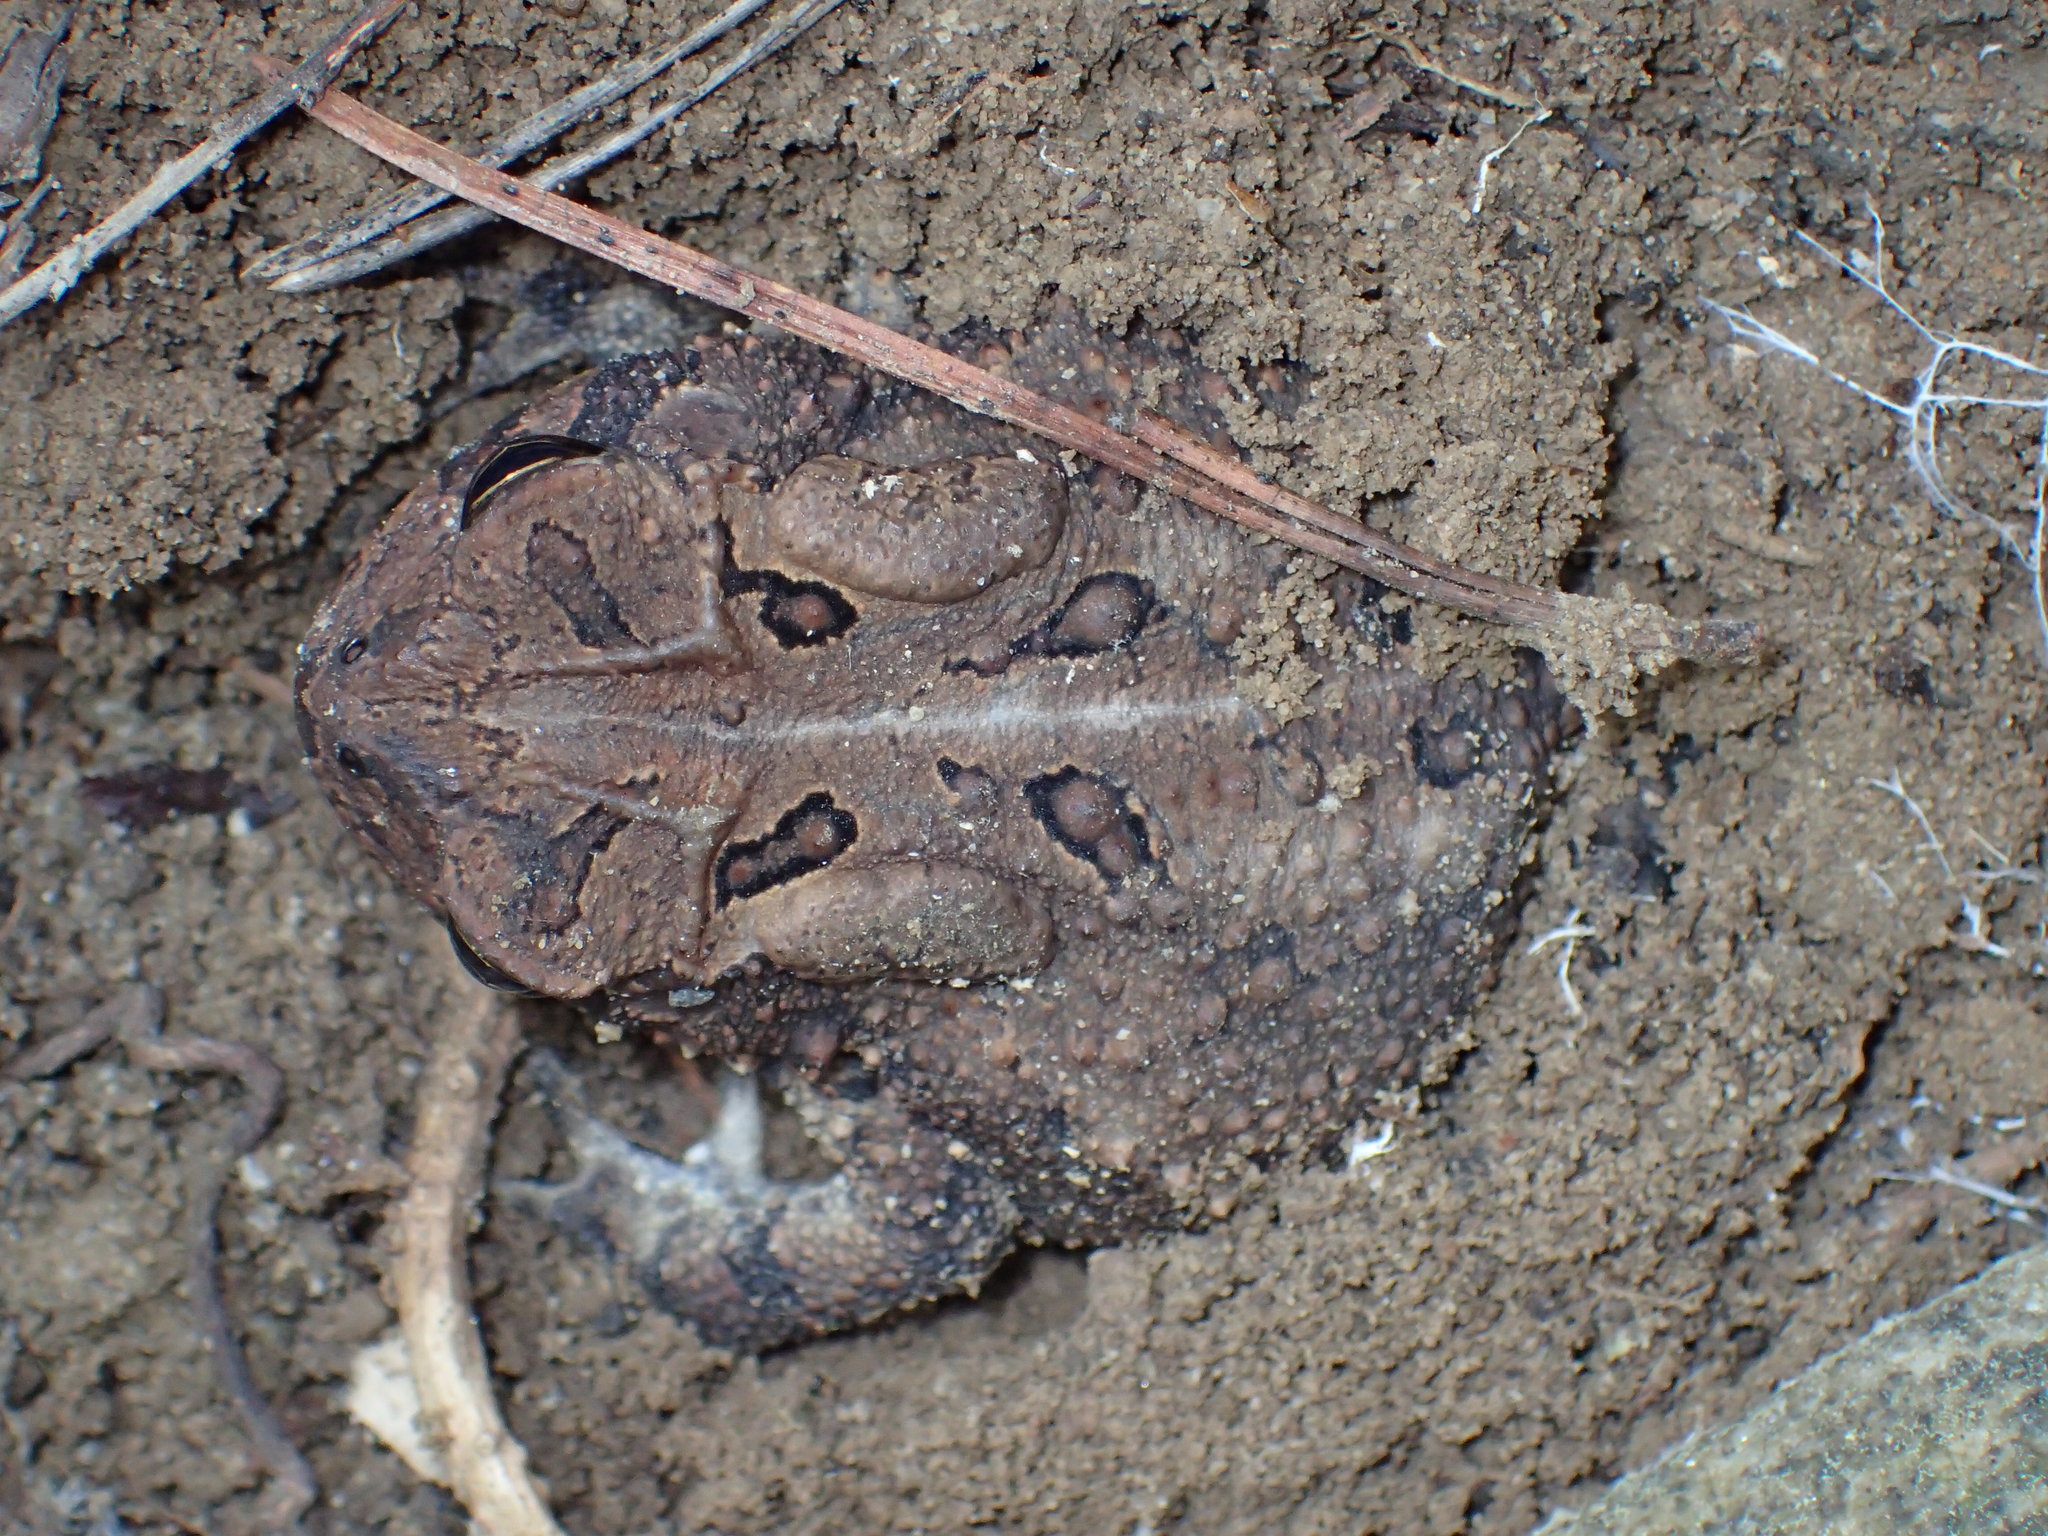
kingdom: Animalia
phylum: Chordata
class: Amphibia
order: Anura
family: Bufonidae
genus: Anaxyrus
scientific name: Anaxyrus americanus
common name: American toad
